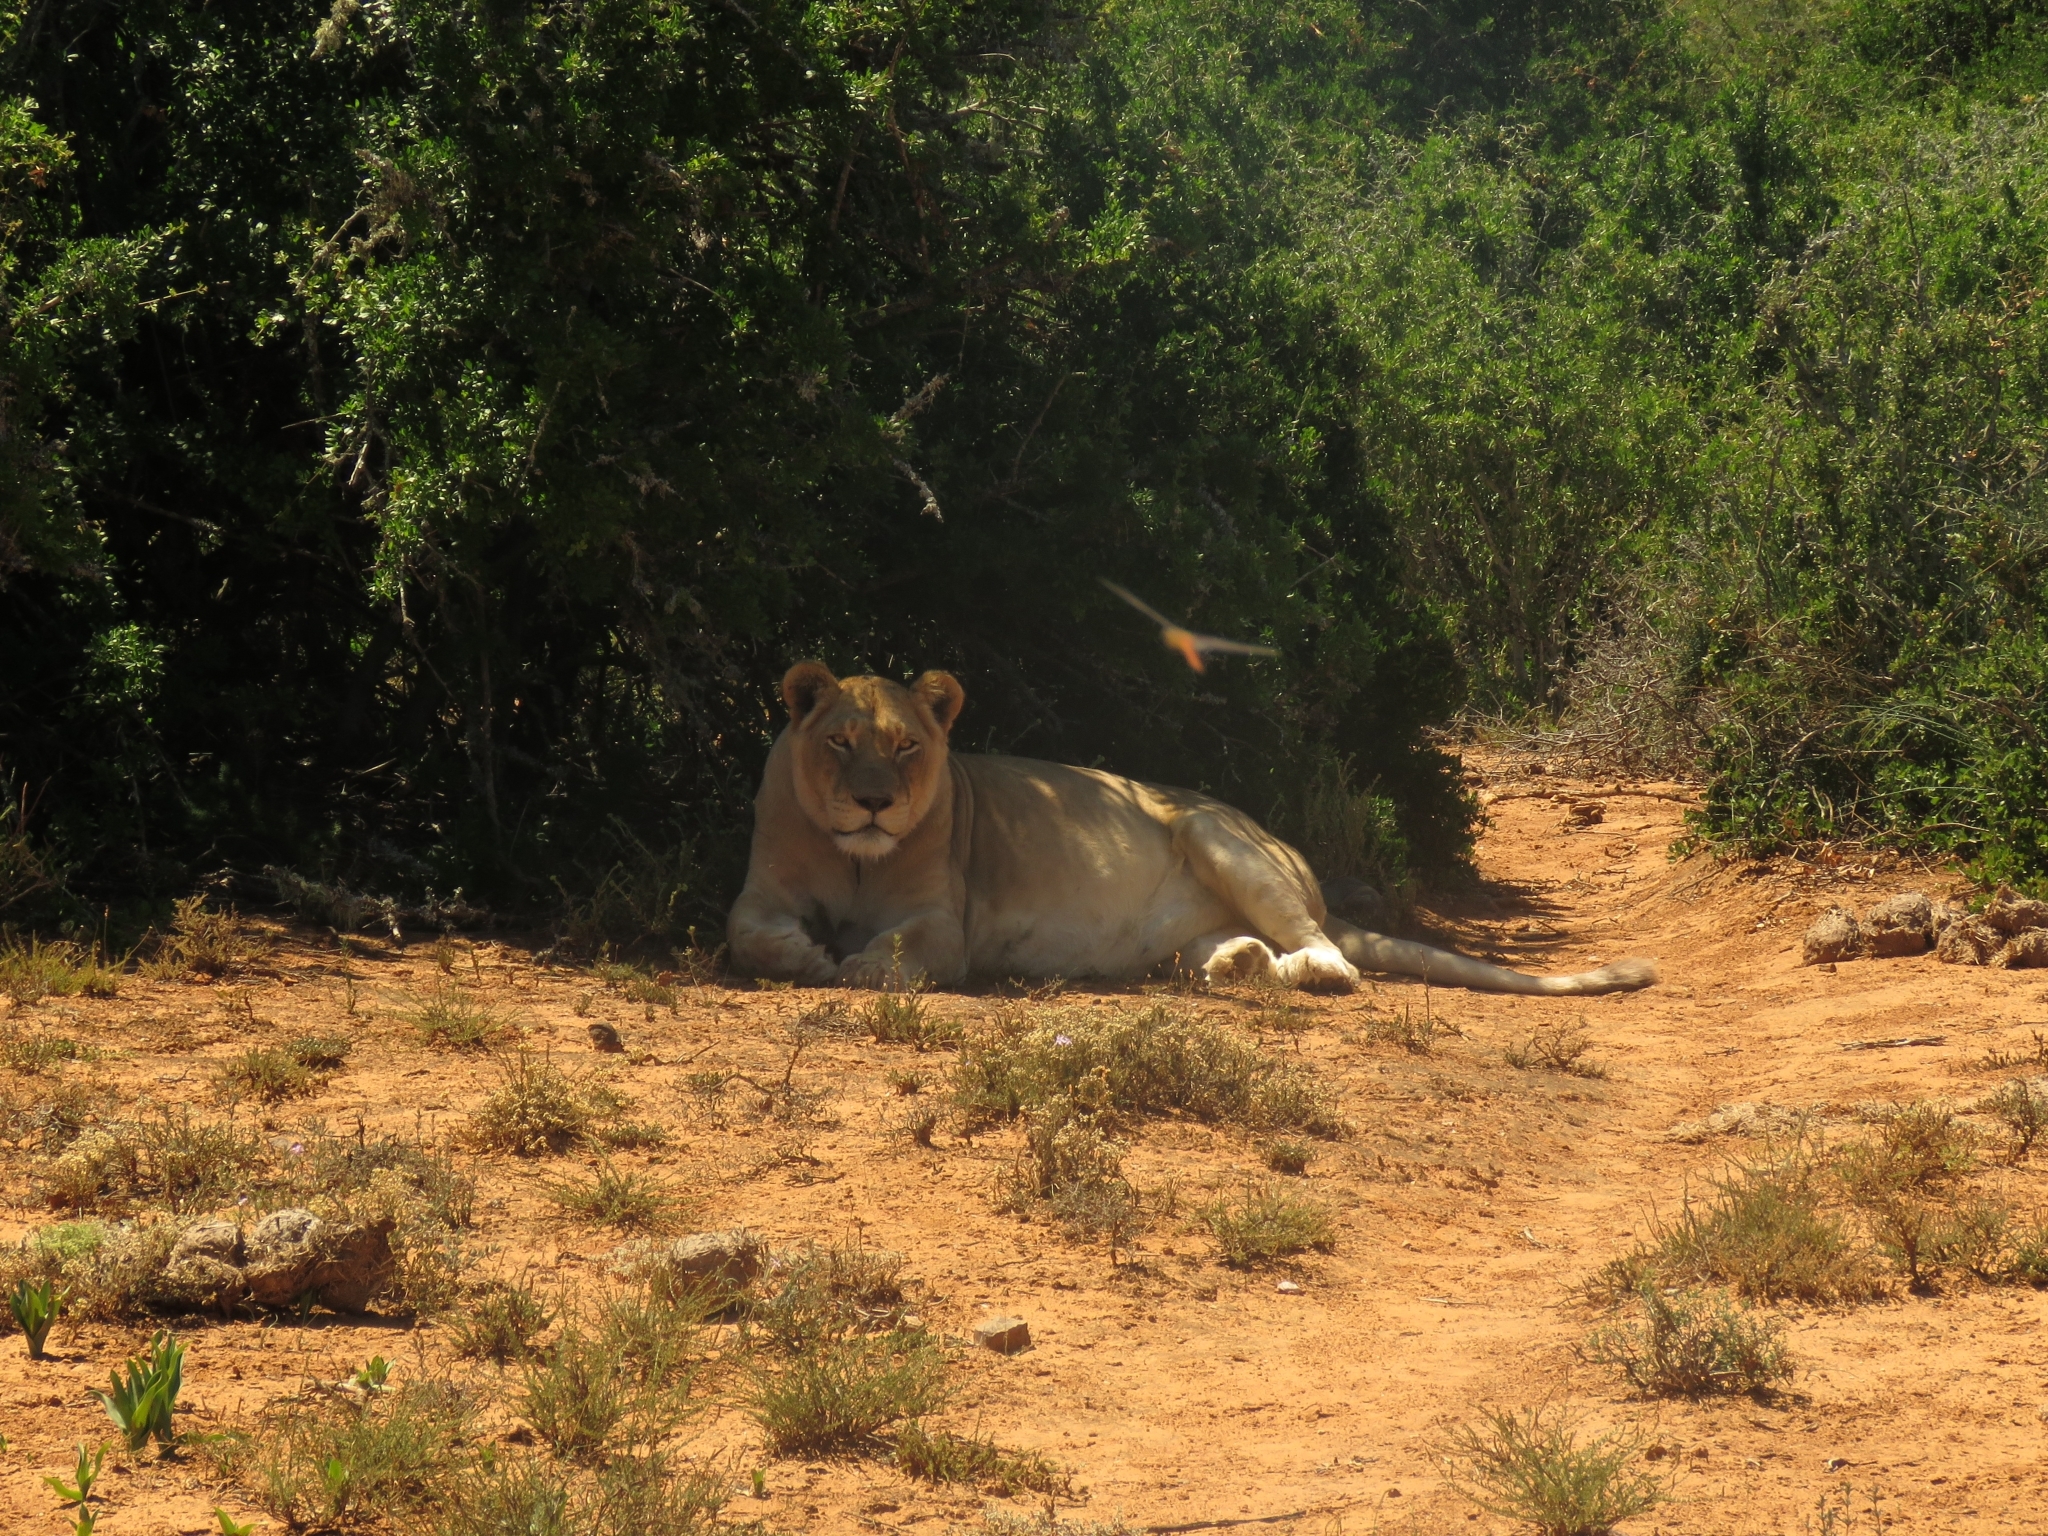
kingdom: Animalia
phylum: Chordata
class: Mammalia
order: Carnivora
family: Felidae
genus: Panthera
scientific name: Panthera leo
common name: Lion
